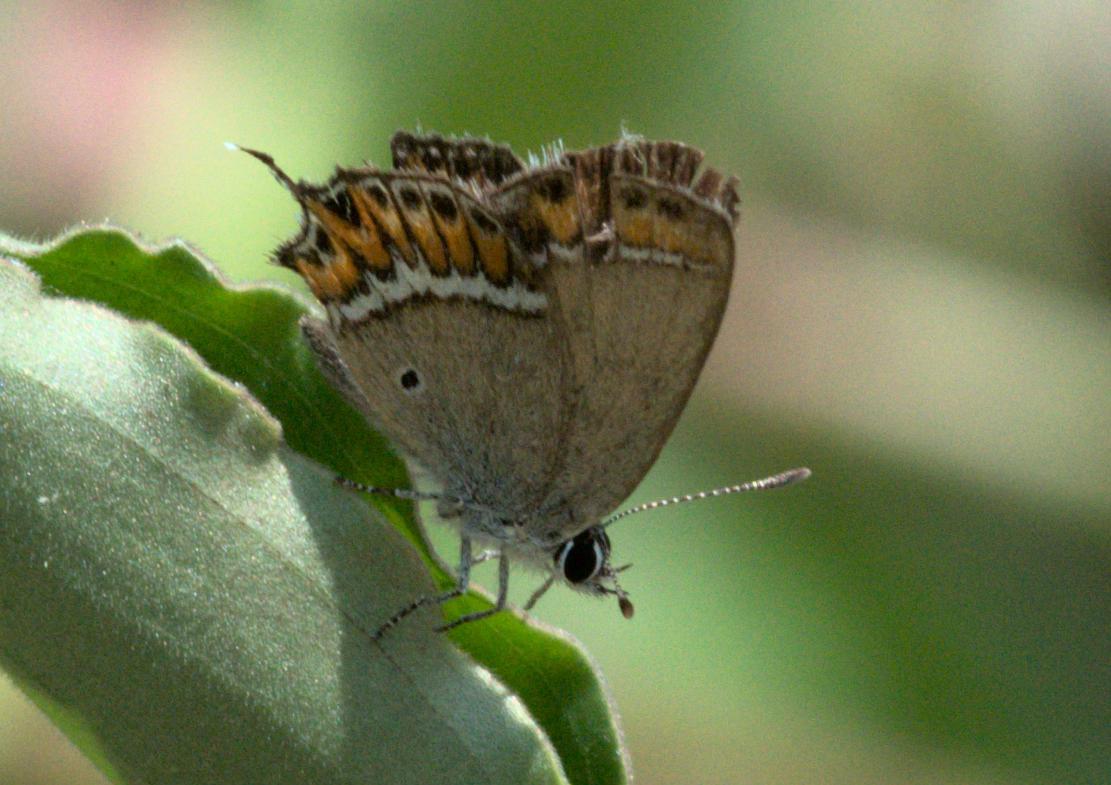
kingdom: Animalia
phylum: Arthropoda
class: Insecta
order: Lepidoptera
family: Lycaenidae
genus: Heliophorus
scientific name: Heliophorus sena
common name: Sorrel sapphire
